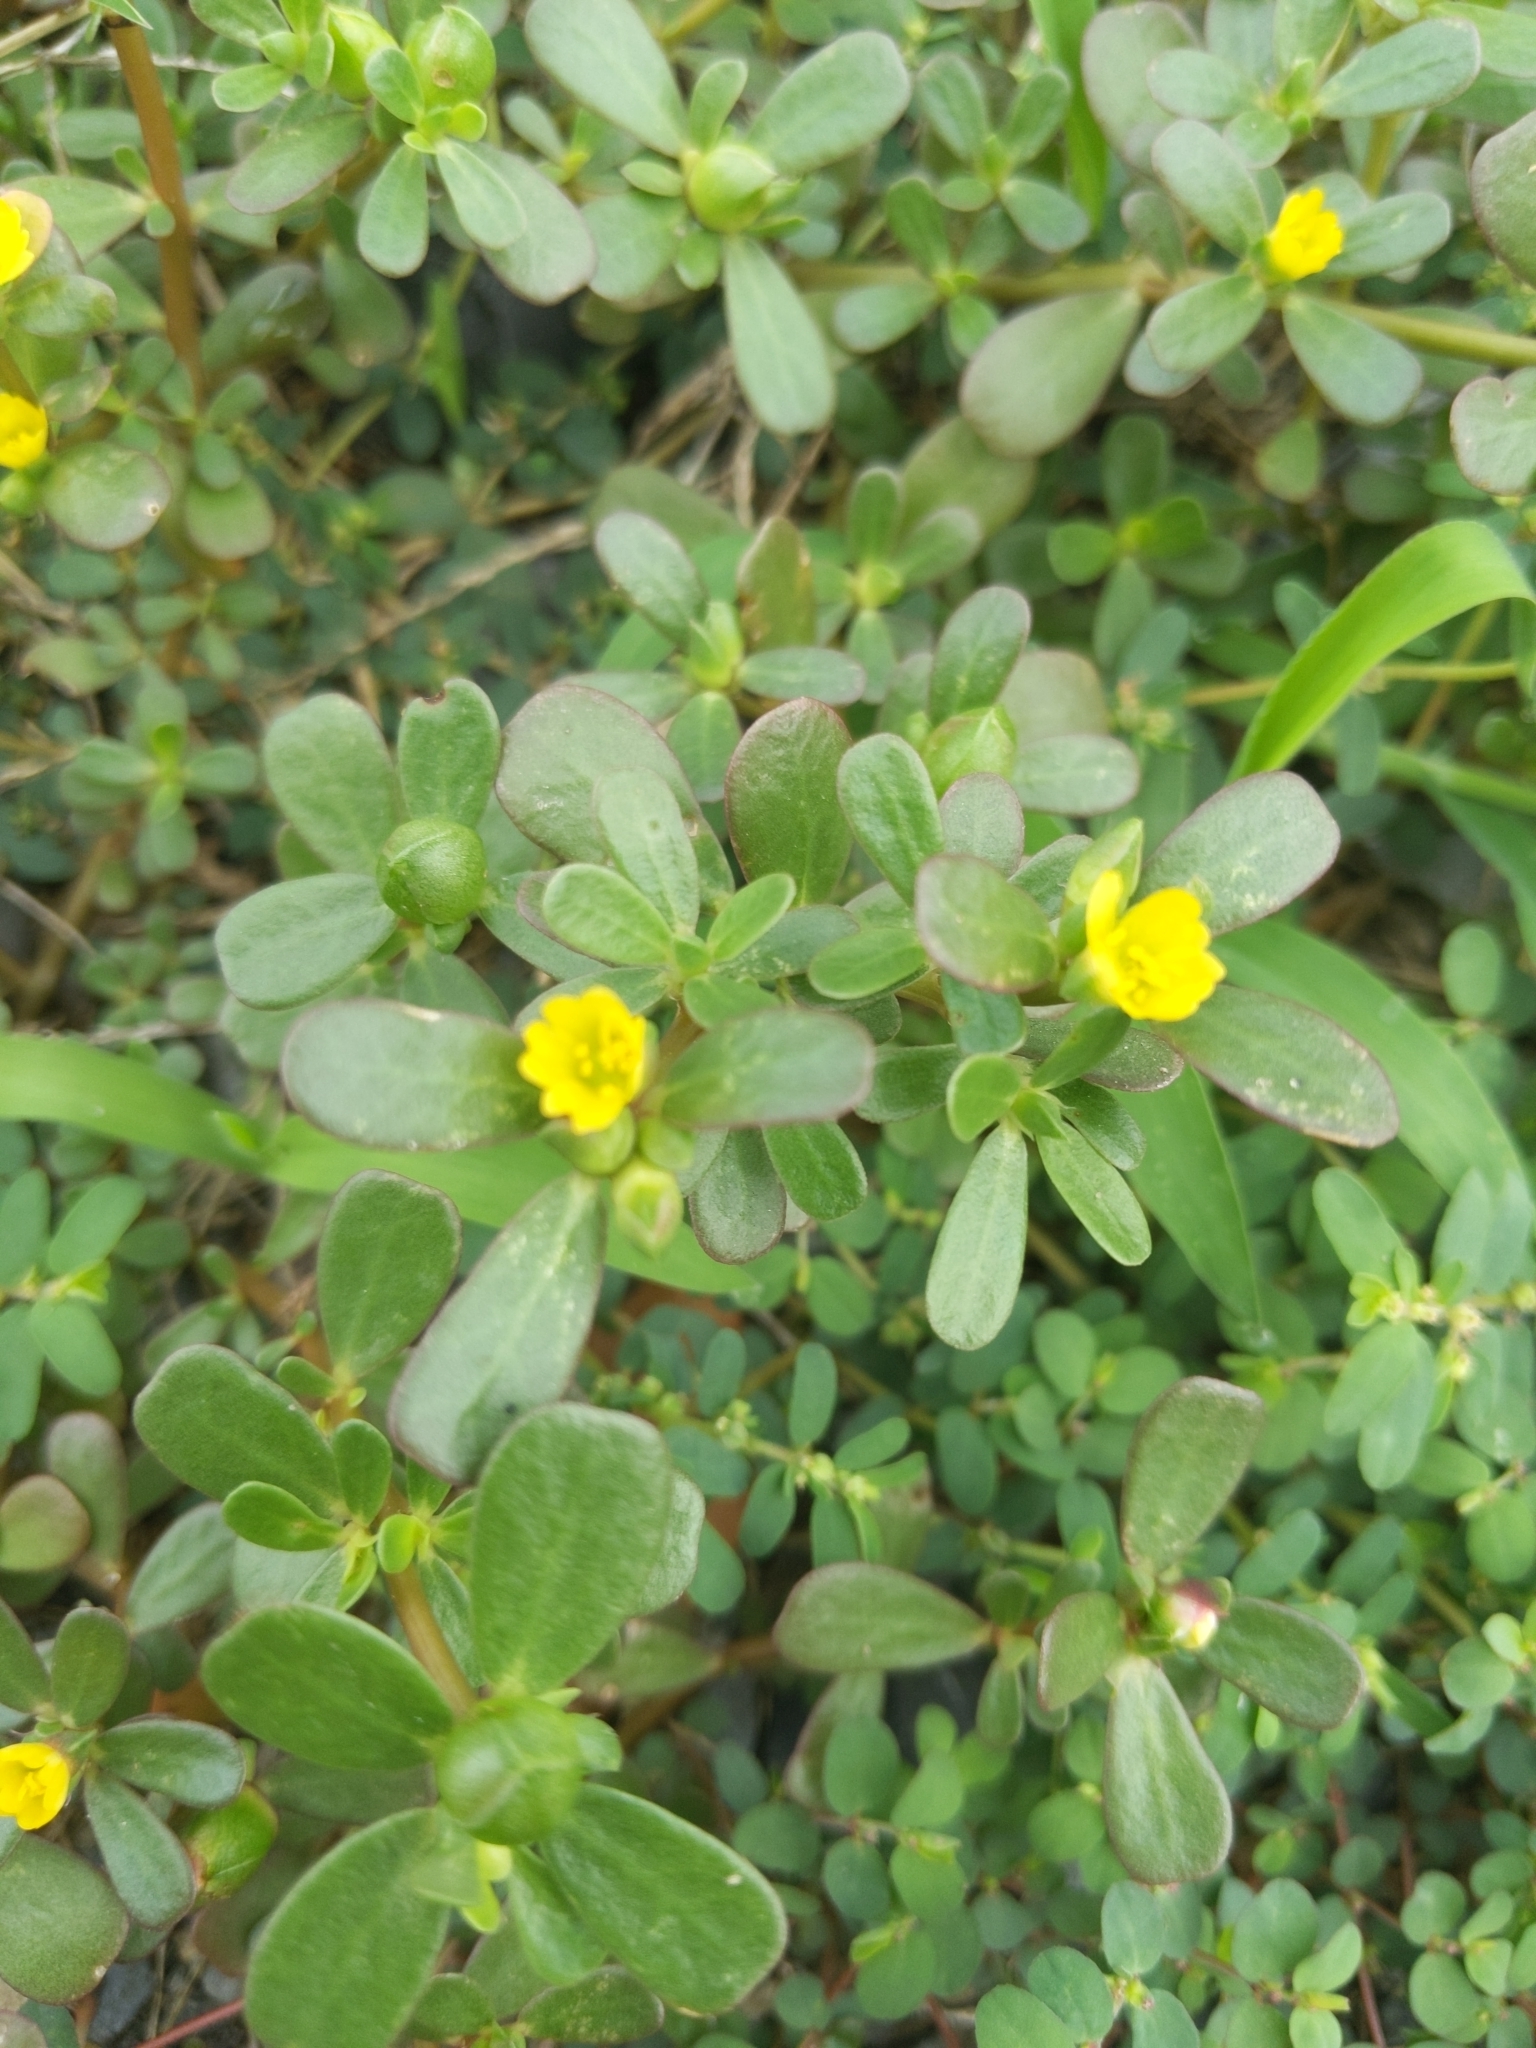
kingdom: Plantae
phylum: Tracheophyta
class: Magnoliopsida
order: Caryophyllales
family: Portulacaceae
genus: Portulaca
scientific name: Portulaca oleracea
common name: Common purslane
